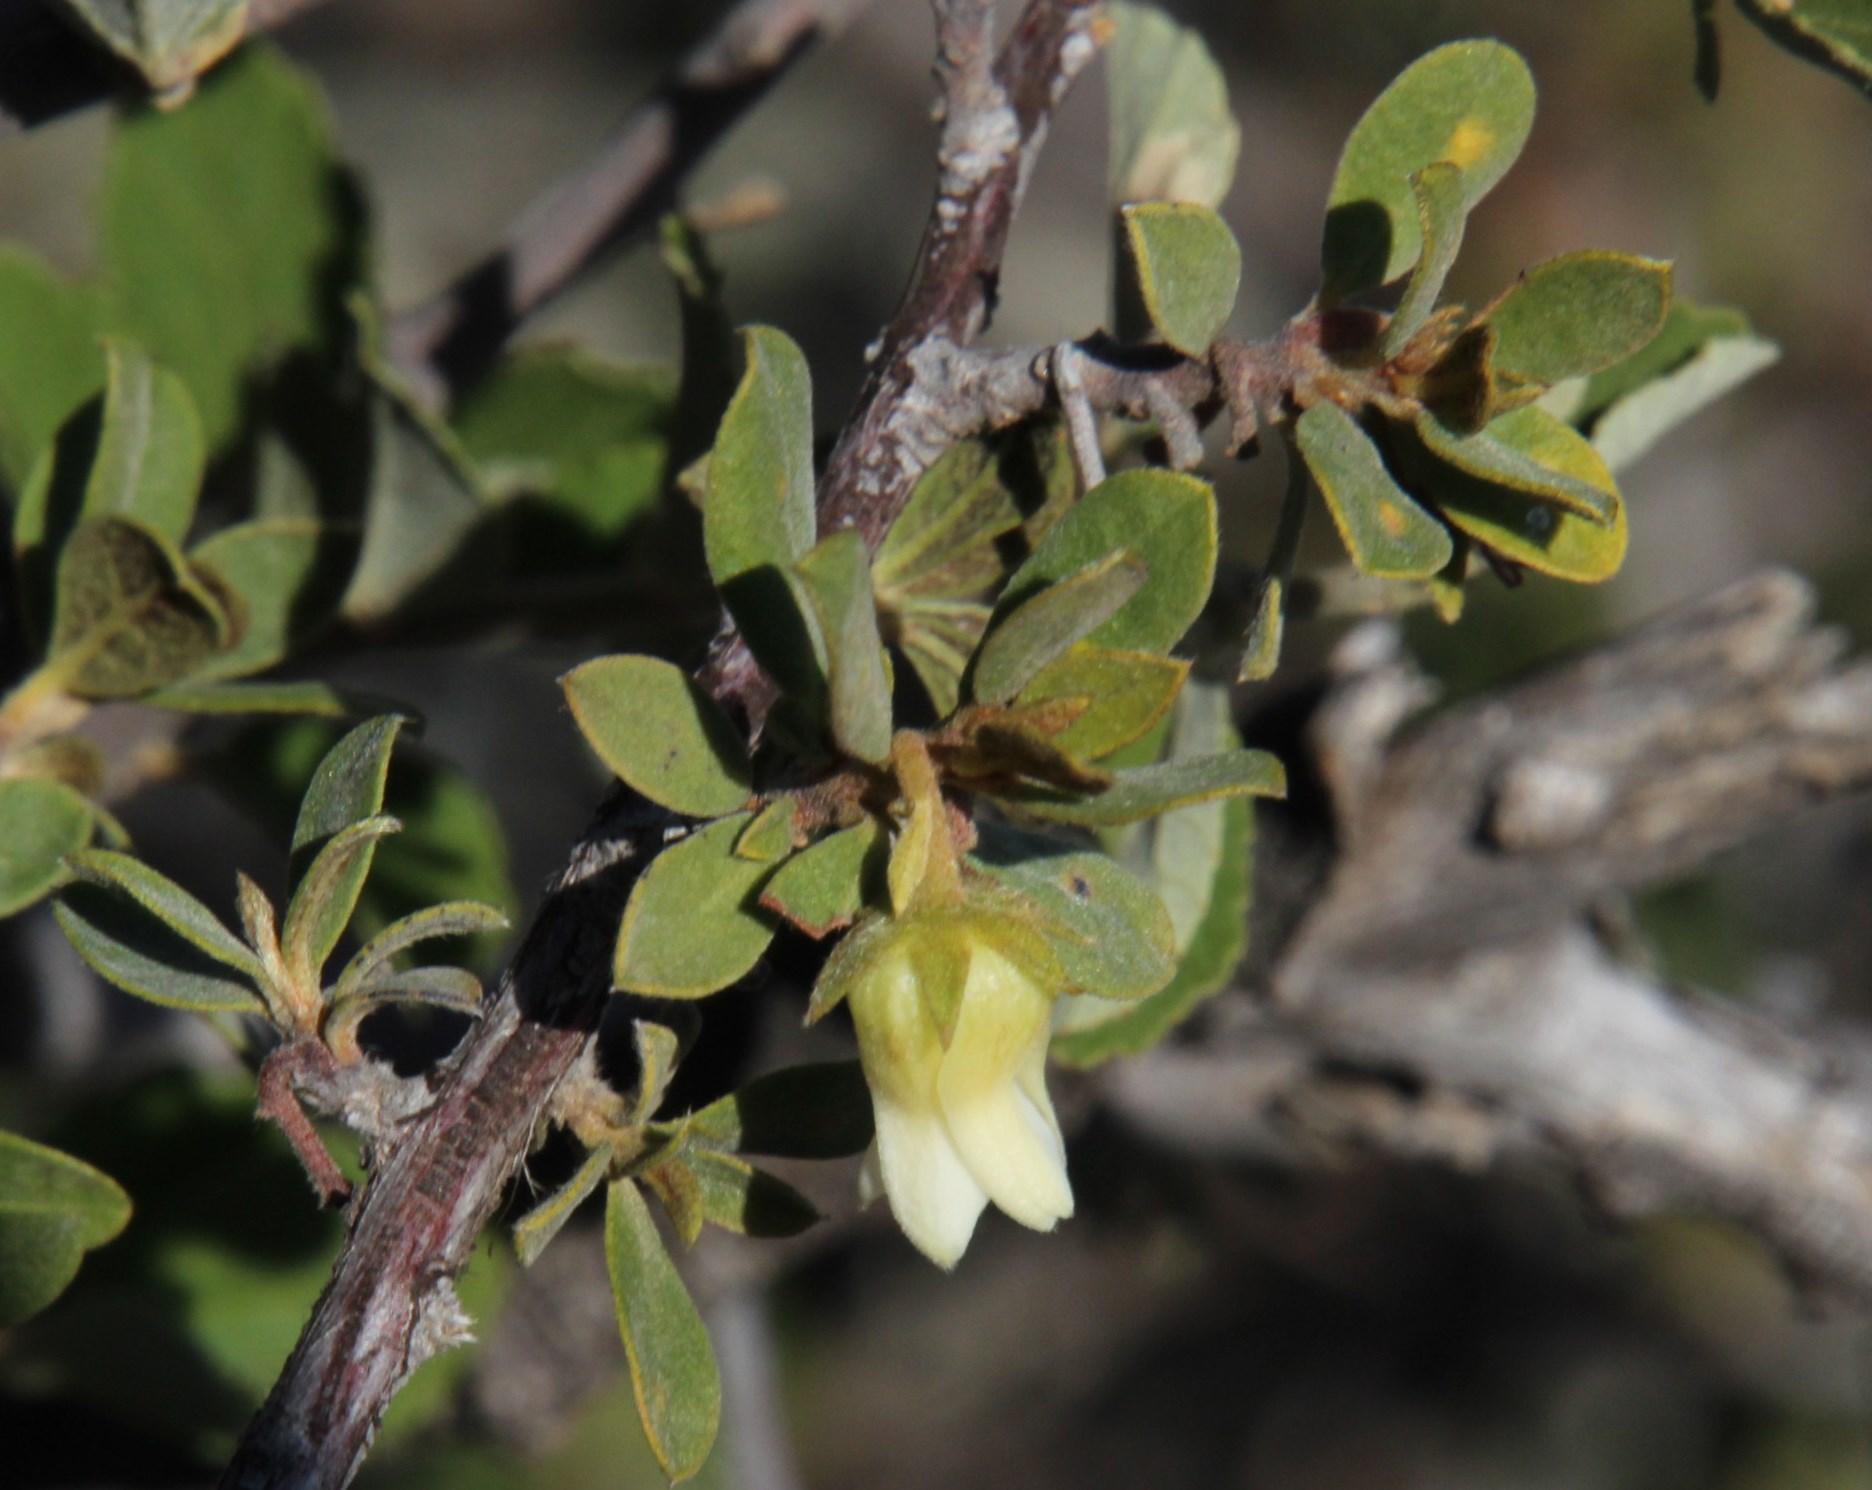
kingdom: Plantae
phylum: Tracheophyta
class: Magnoliopsida
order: Ericales
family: Ebenaceae
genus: Diospyros
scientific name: Diospyros pubescens
